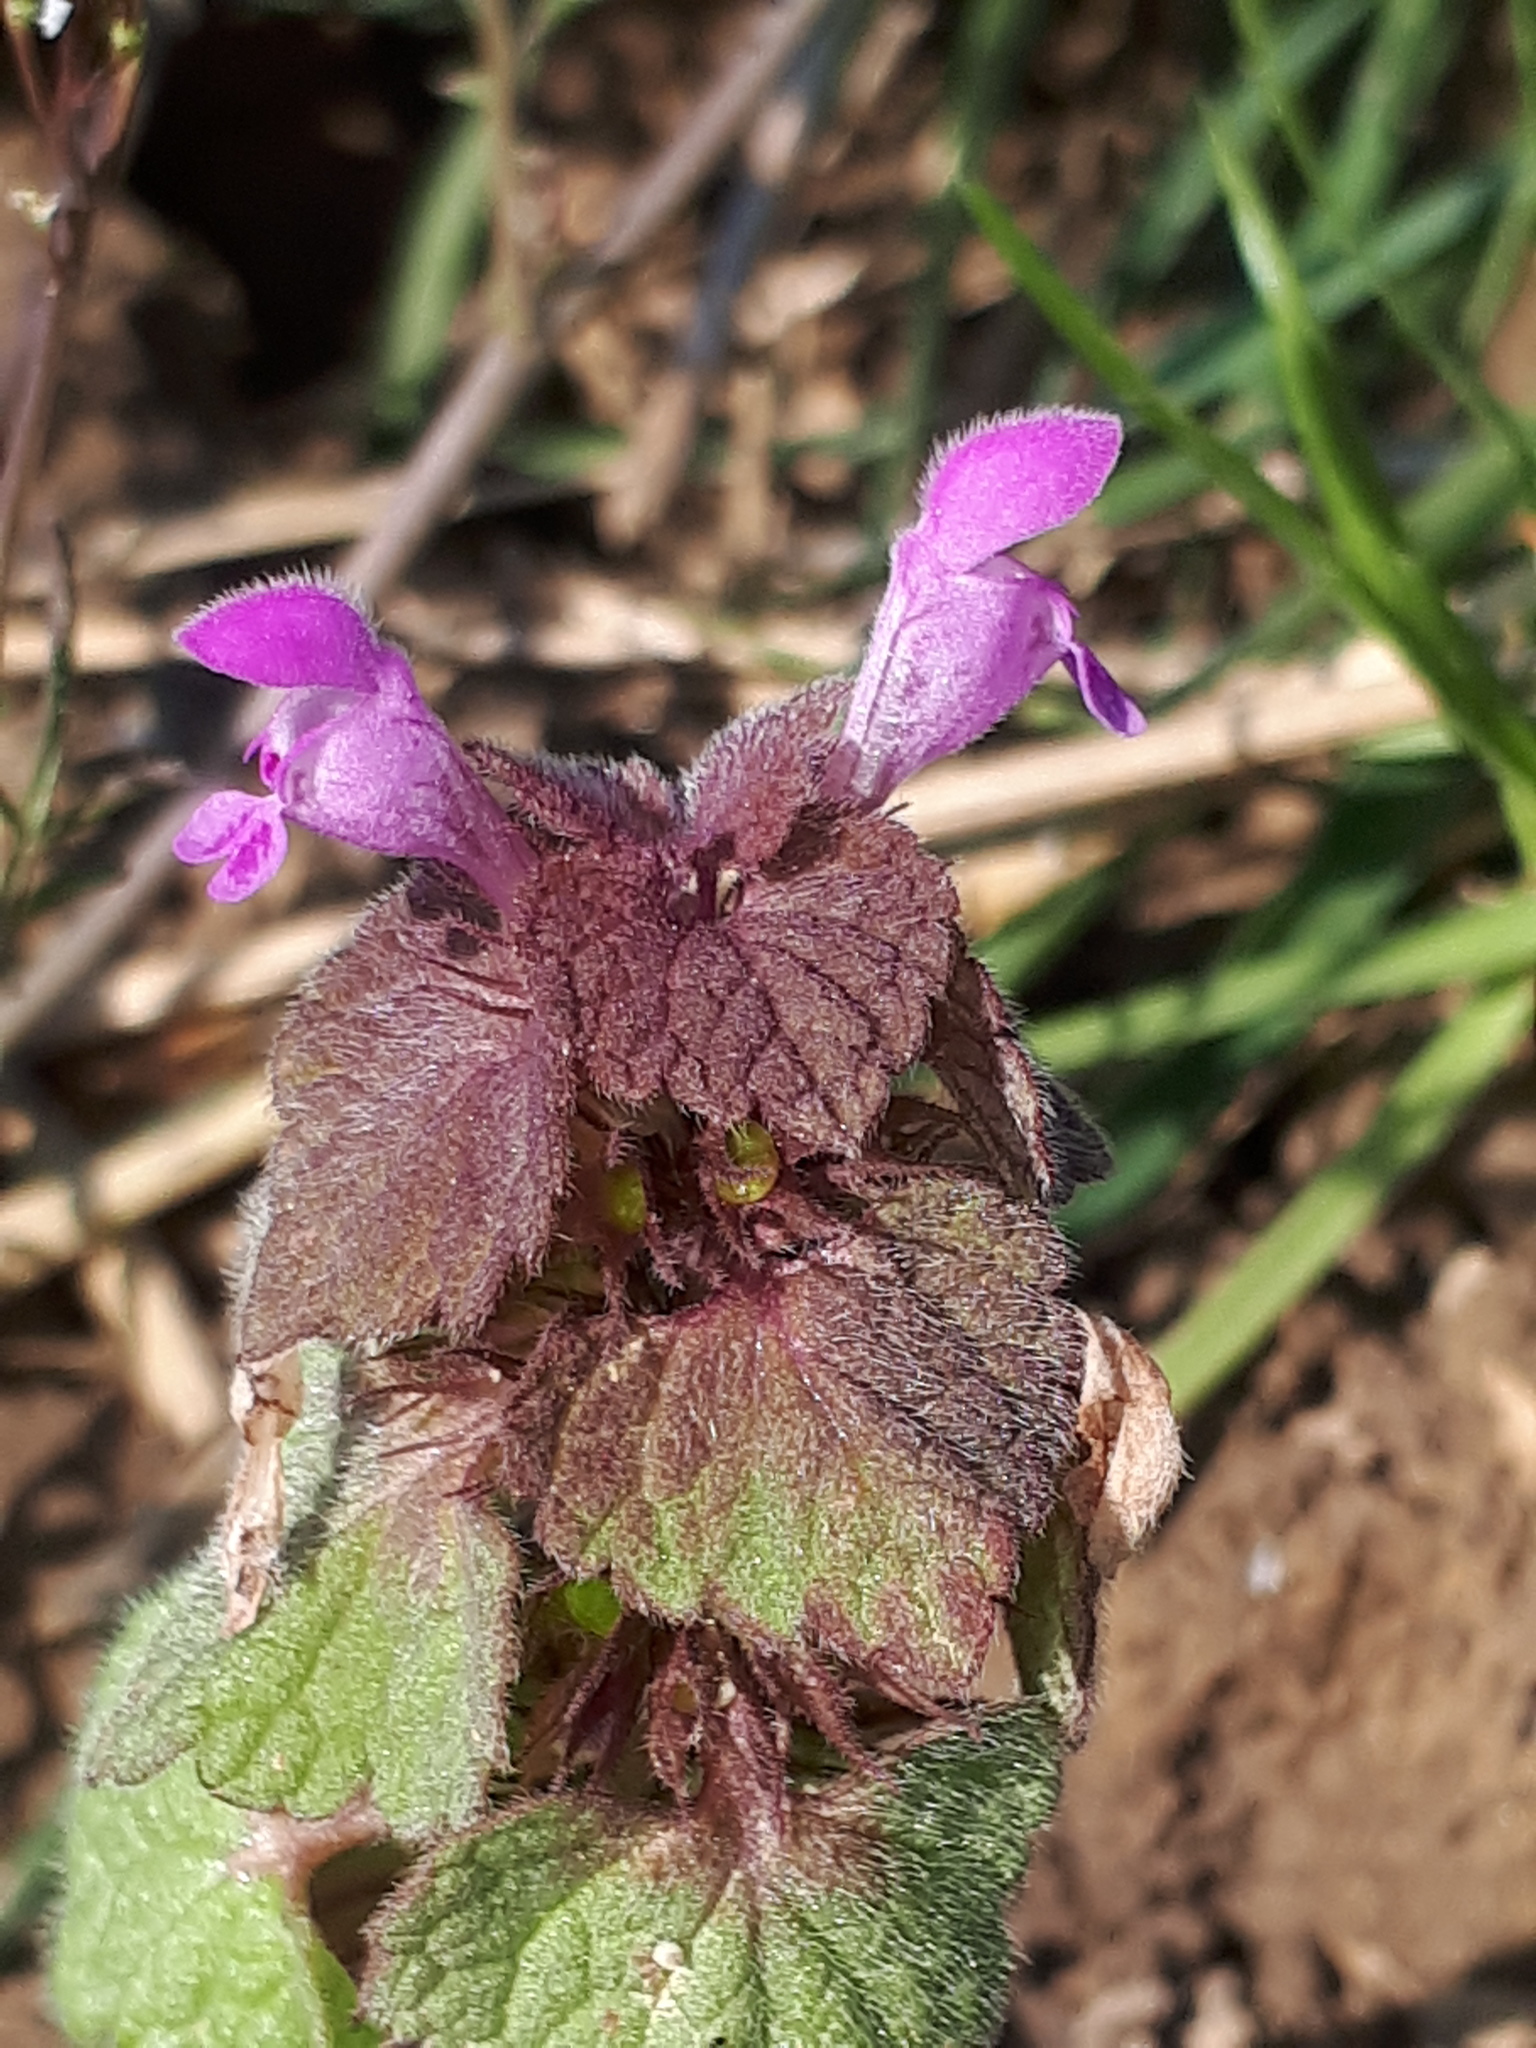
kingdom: Plantae
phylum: Tracheophyta
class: Magnoliopsida
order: Lamiales
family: Lamiaceae
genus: Lamium
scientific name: Lamium purpureum
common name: Red dead-nettle
